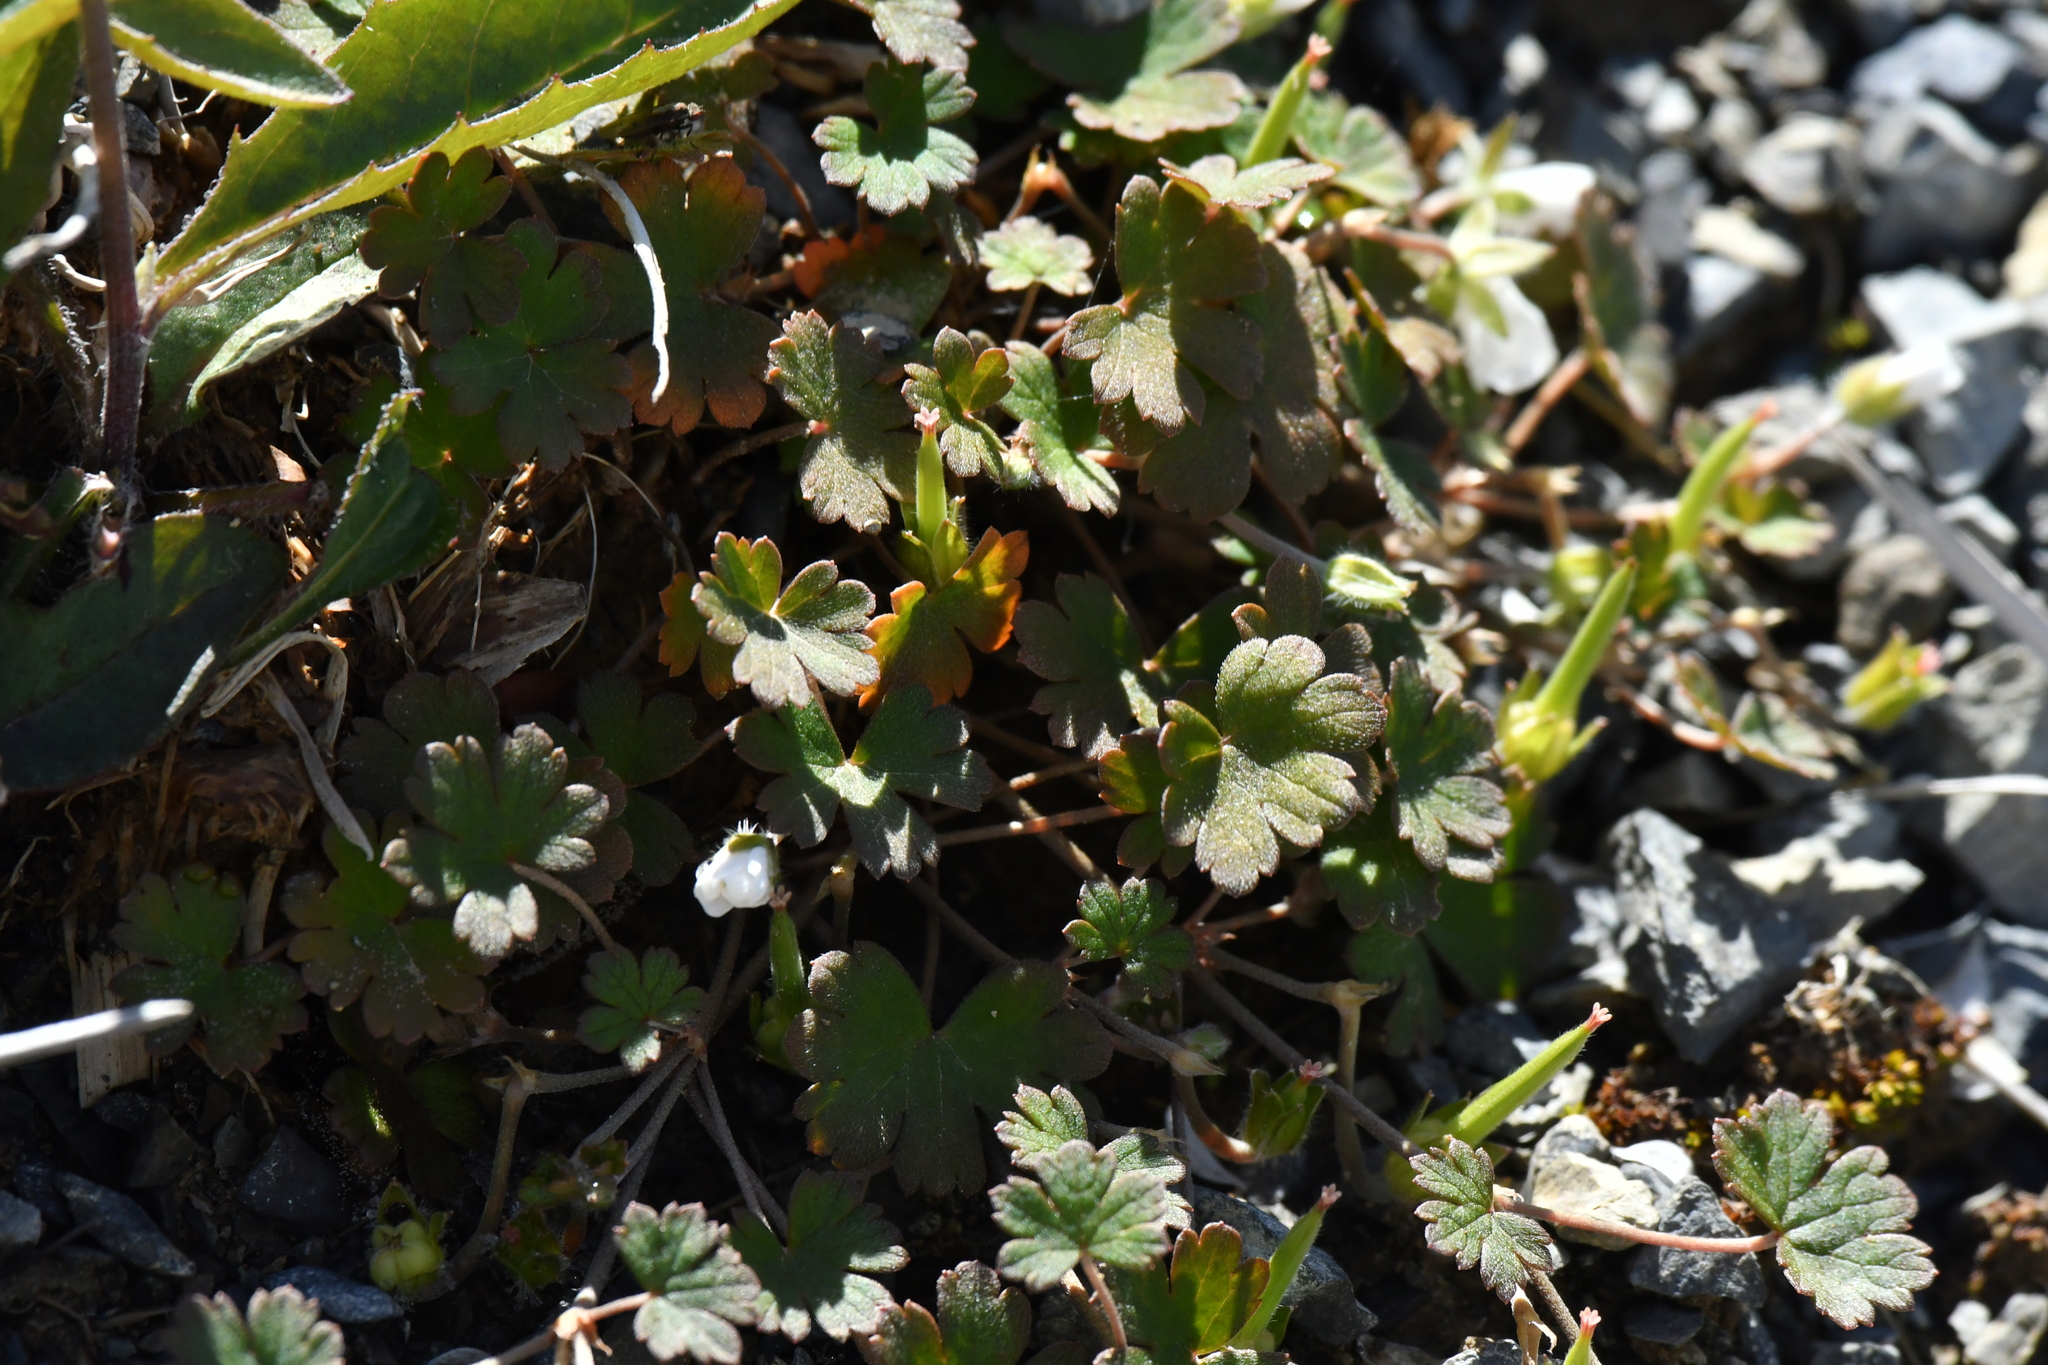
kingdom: Plantae
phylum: Tracheophyta
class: Magnoliopsida
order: Geraniales
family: Geraniaceae
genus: Geranium
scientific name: Geranium brevicaule
